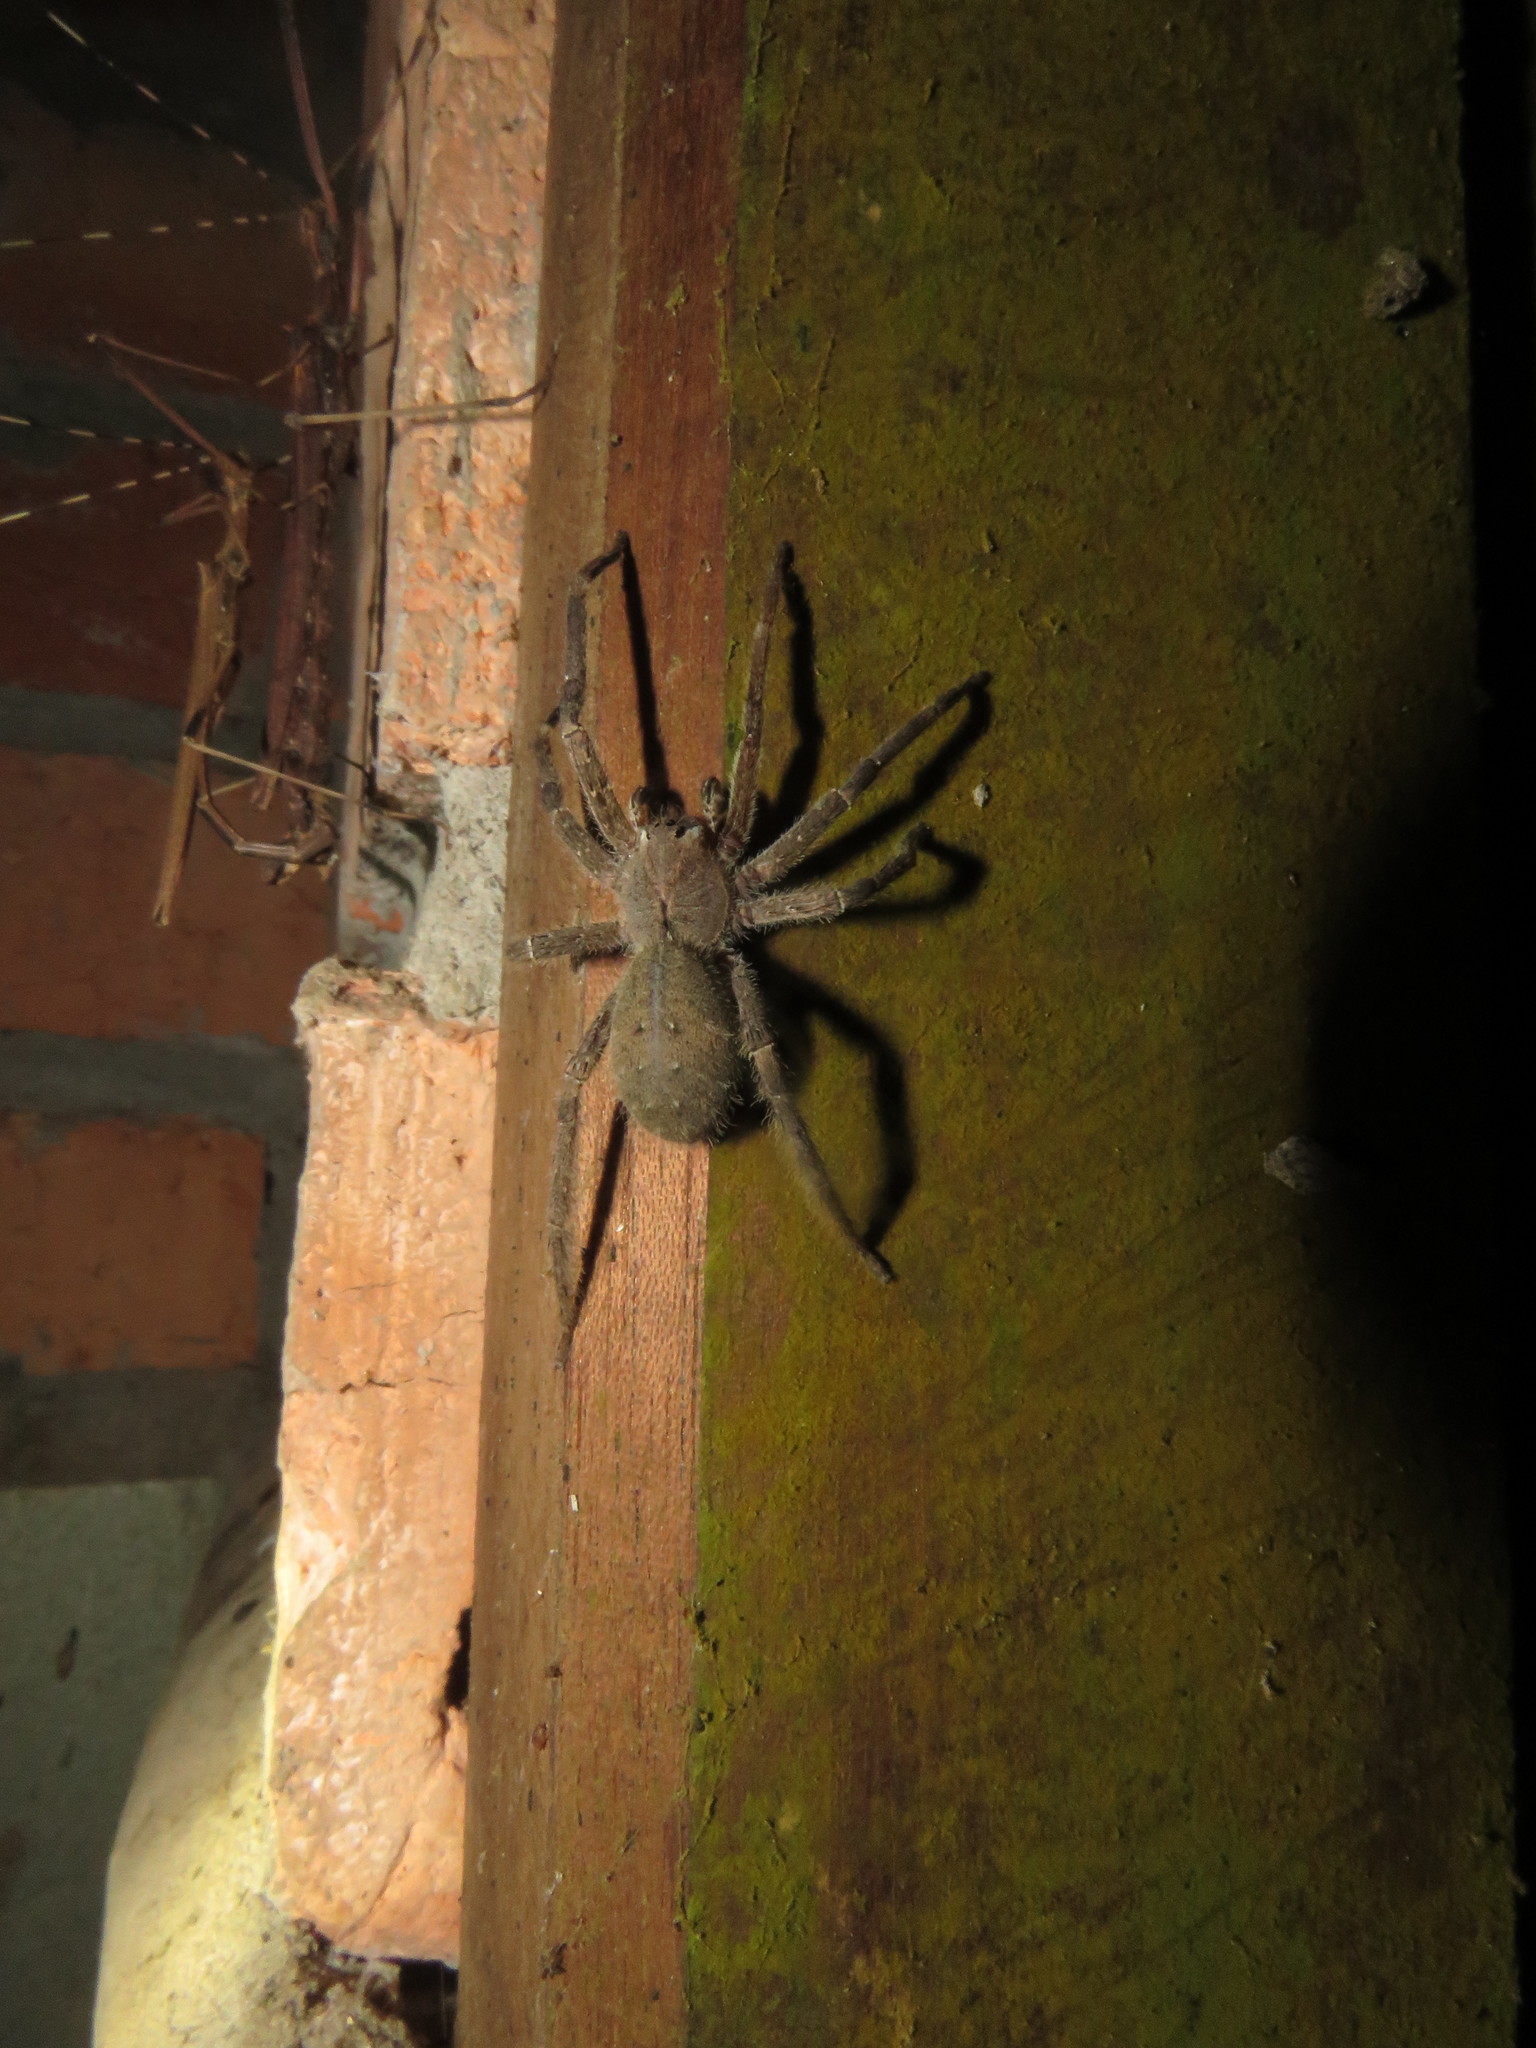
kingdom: Animalia
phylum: Arthropoda
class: Arachnida
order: Araneae
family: Ctenidae
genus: Phoneutria
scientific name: Phoneutria boliviensis
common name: Wandering spiders
